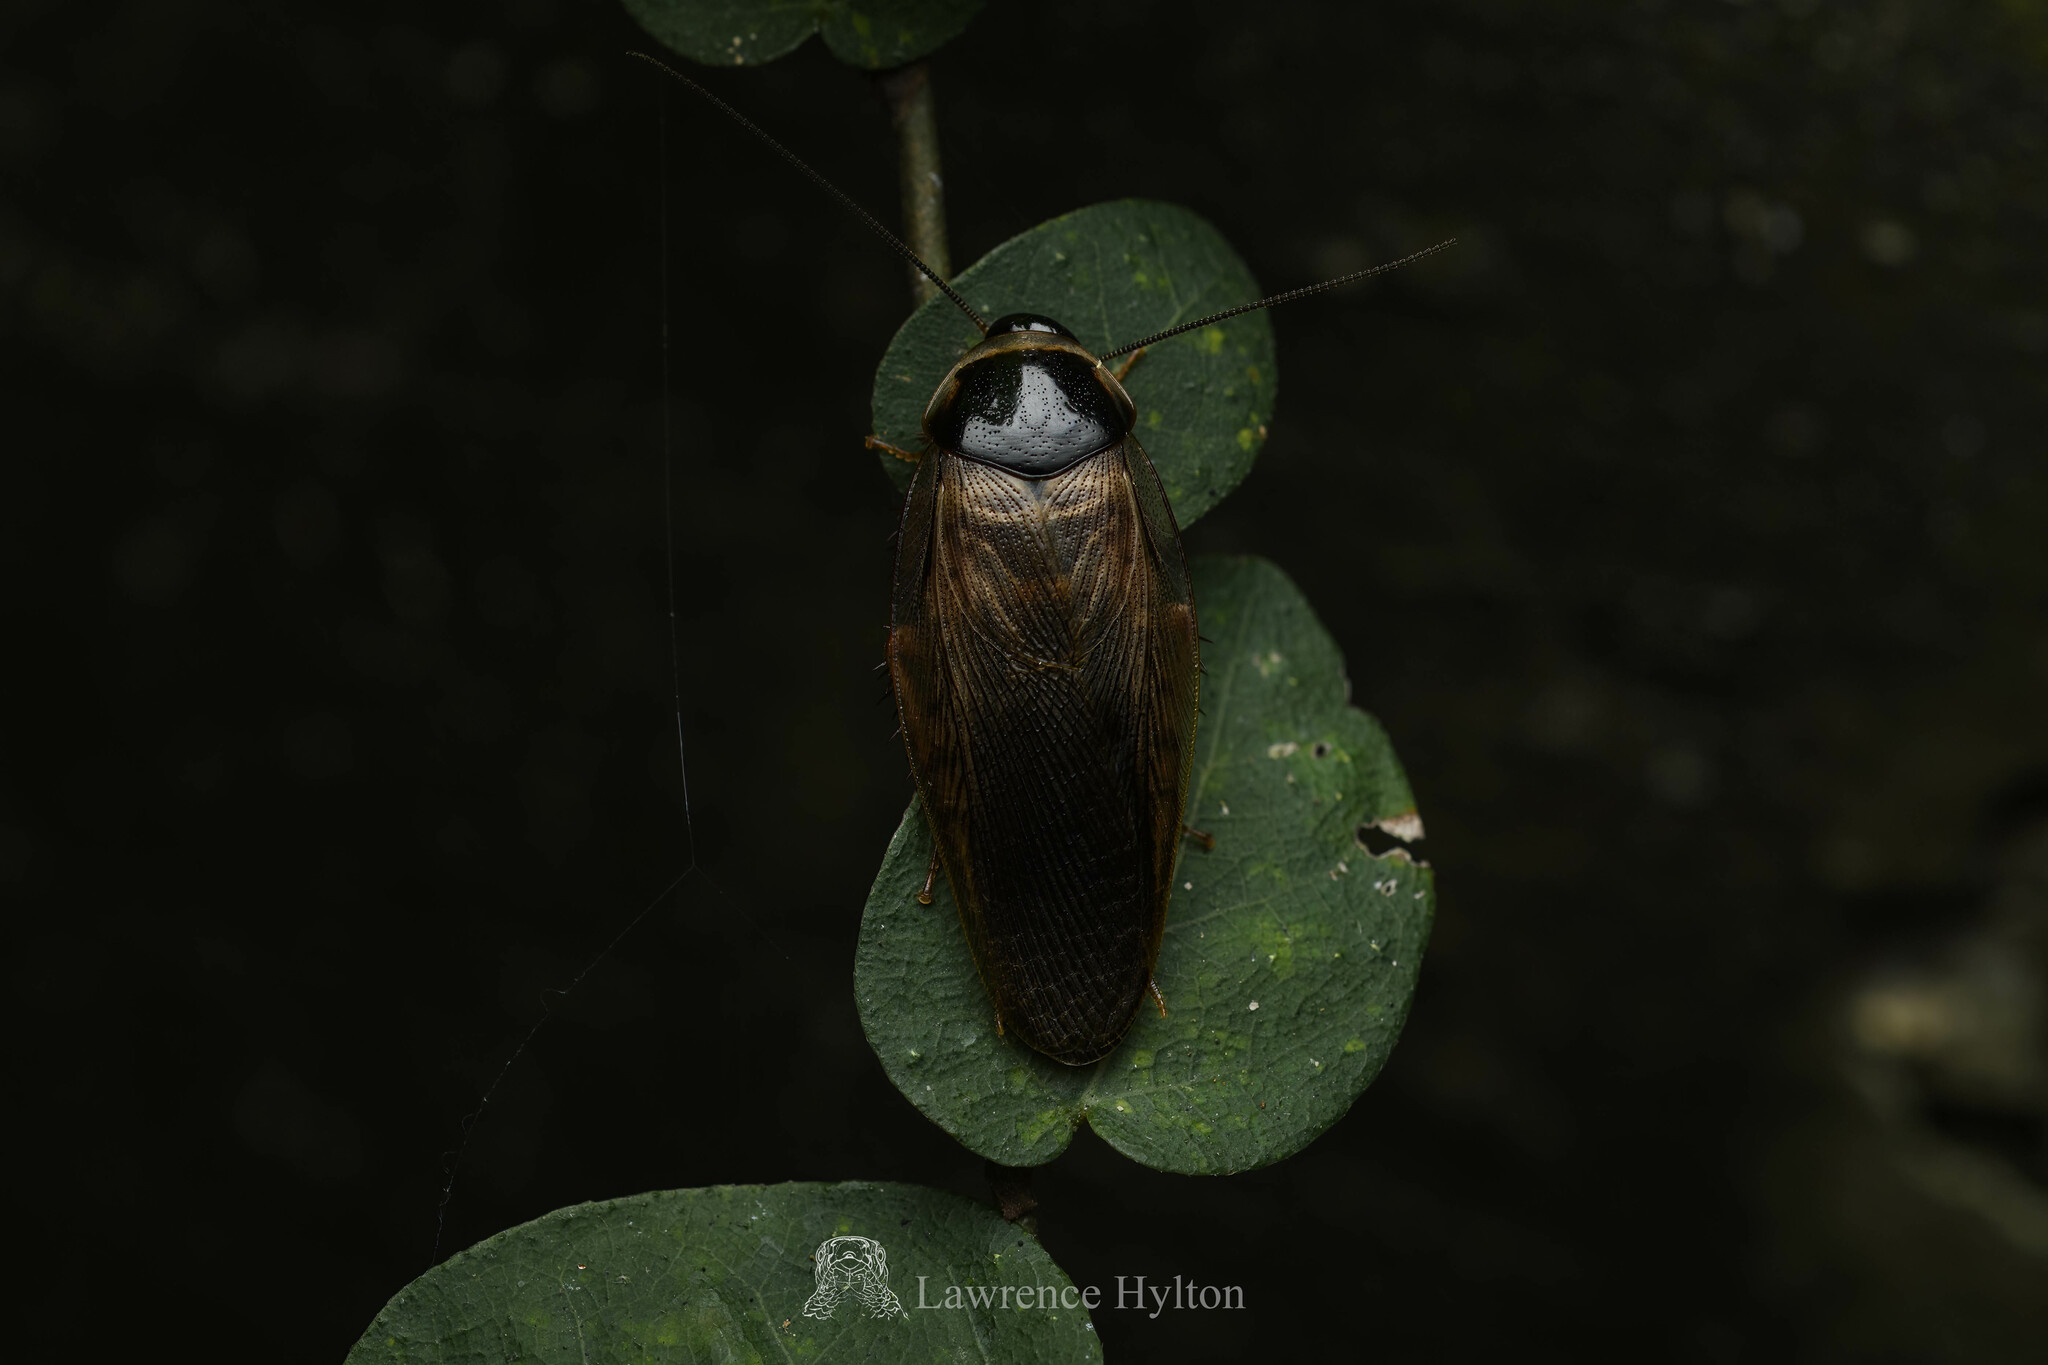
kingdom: Animalia
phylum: Arthropoda
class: Insecta
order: Blattodea
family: Blaberidae
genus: Pycnoscelus
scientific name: Pycnoscelus indicus
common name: Burrowing cockroach
